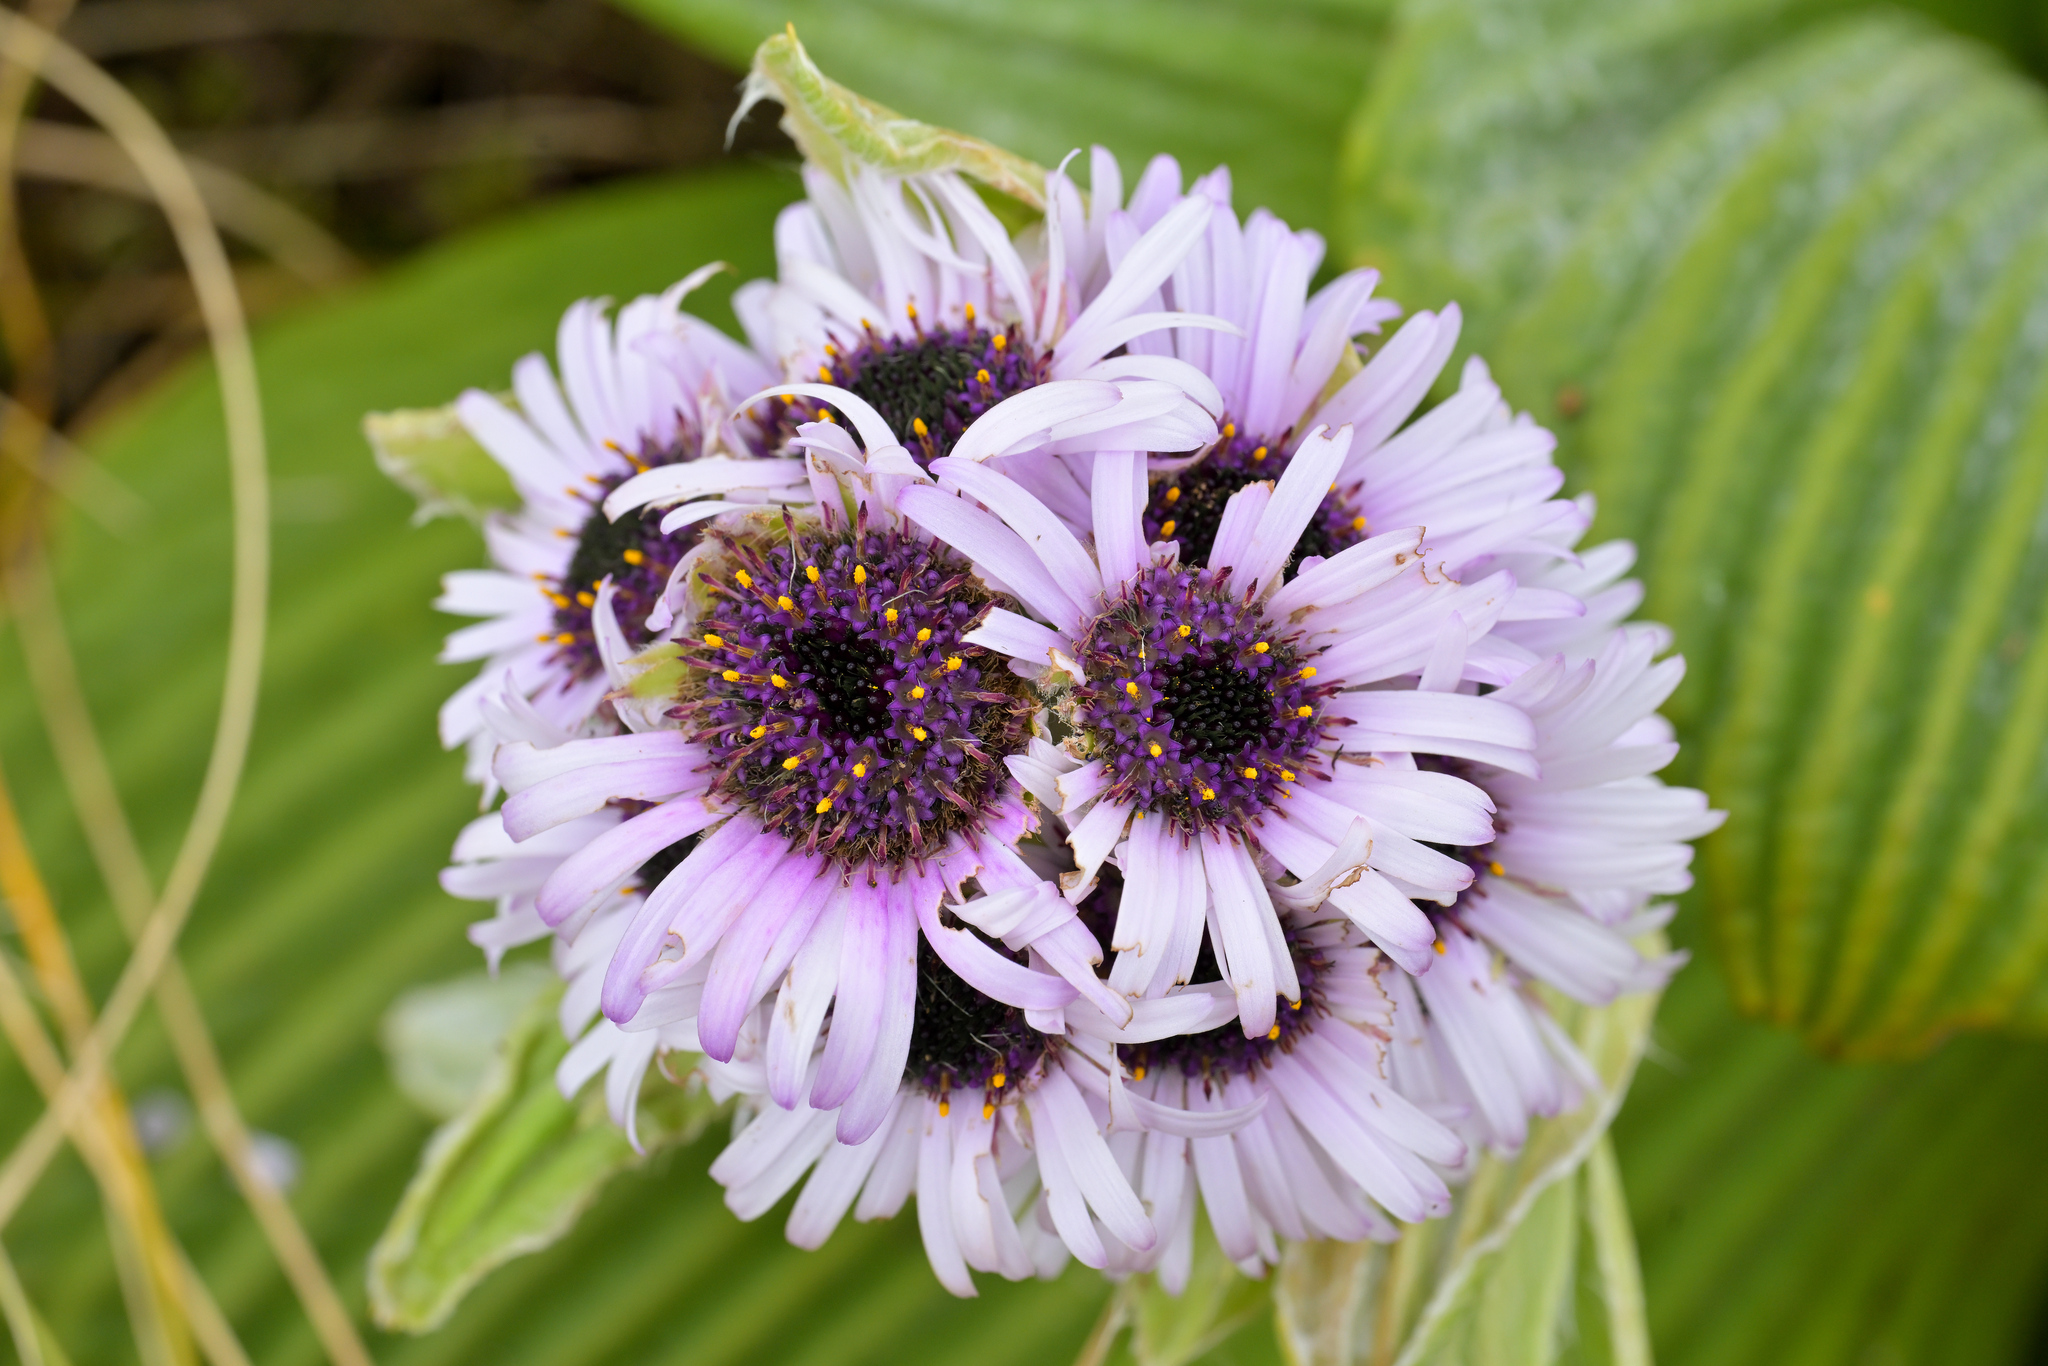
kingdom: Plantae
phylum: Tracheophyta
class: Magnoliopsida
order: Asterales
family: Asteraceae
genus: Pleurophyllum
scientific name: Pleurophyllum speciosum
